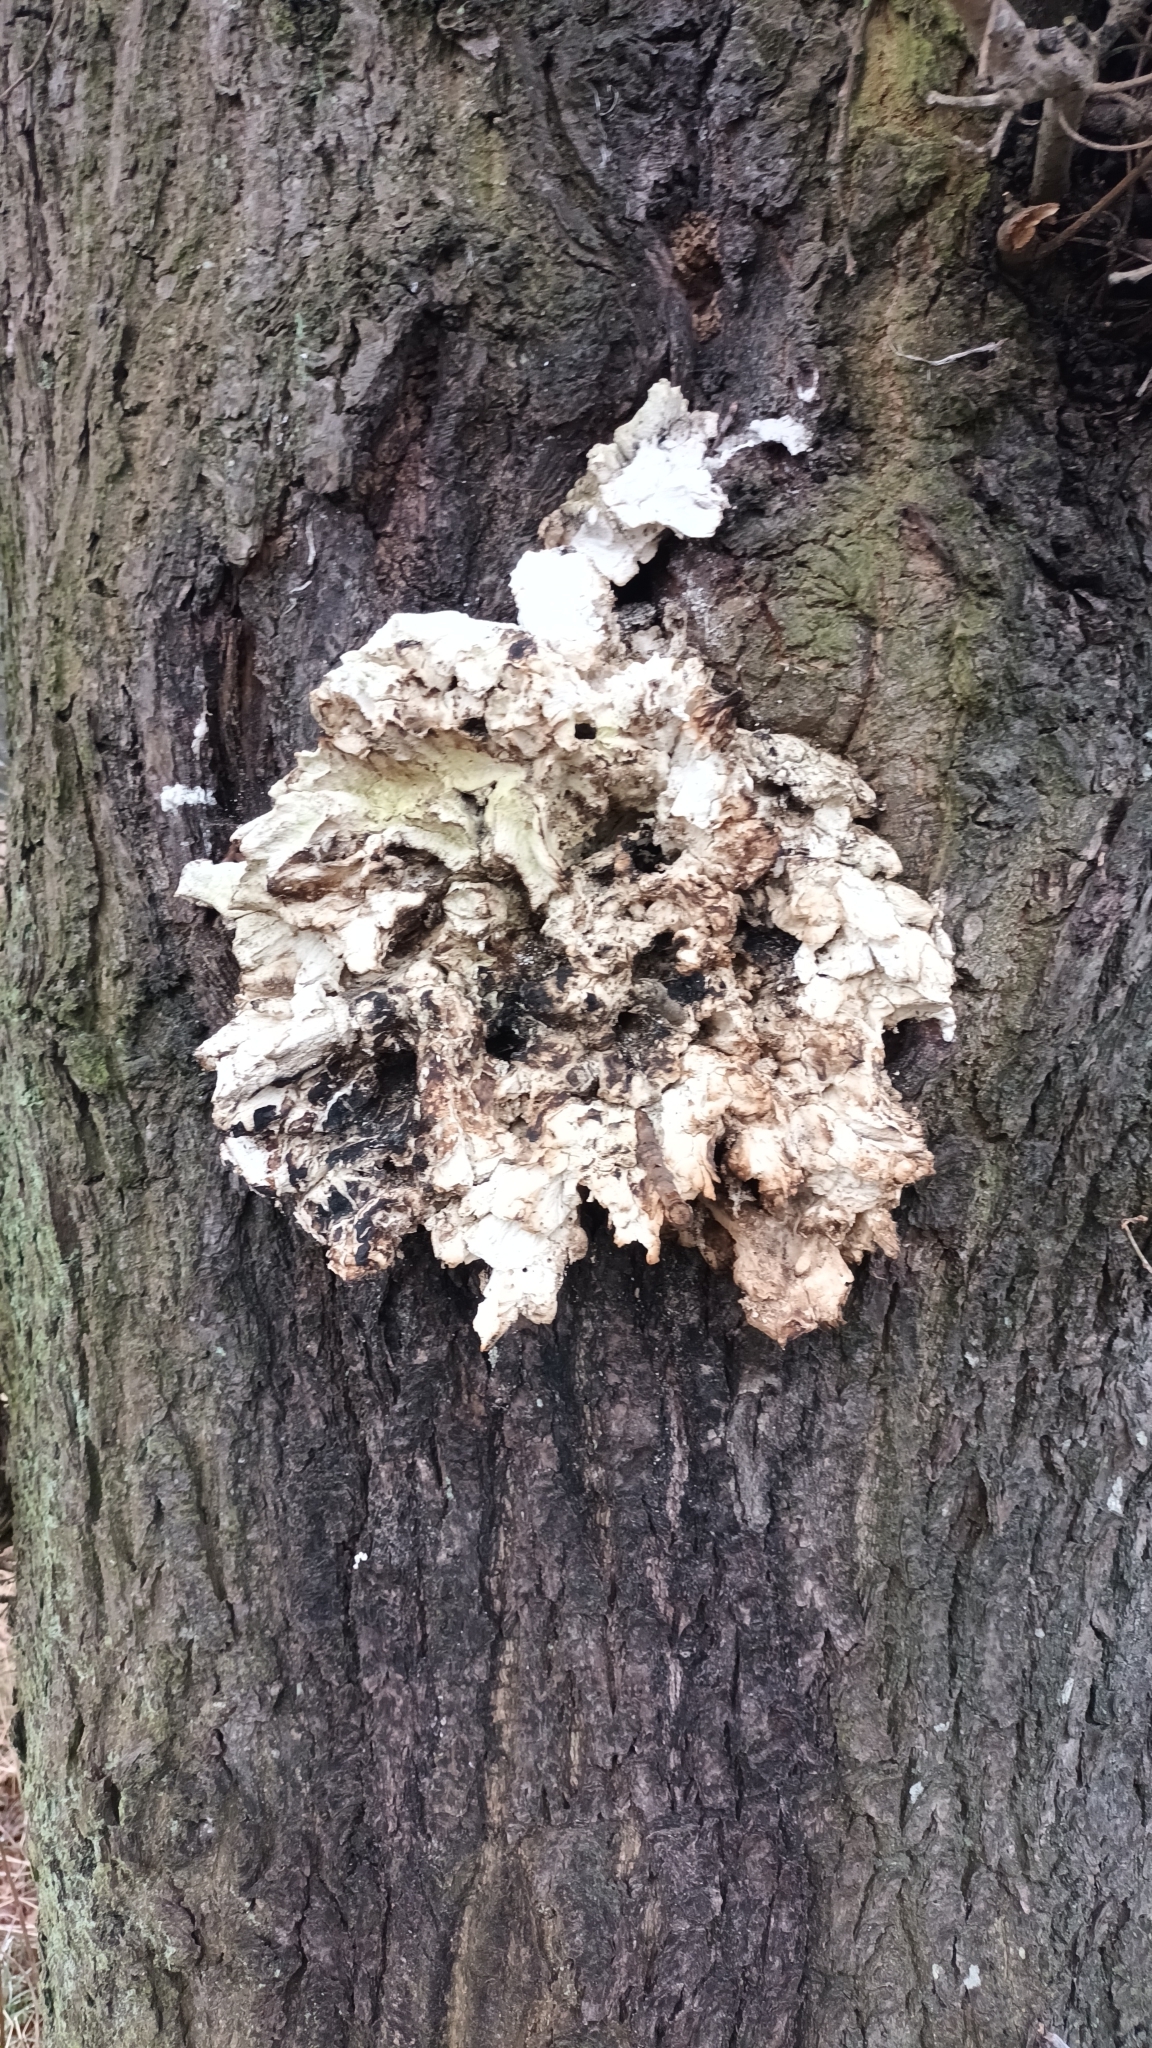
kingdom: Fungi
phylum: Basidiomycota
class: Agaricomycetes
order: Polyporales
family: Laetiporaceae
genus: Laetiporus
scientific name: Laetiporus sulphureus
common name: Chicken of the woods
